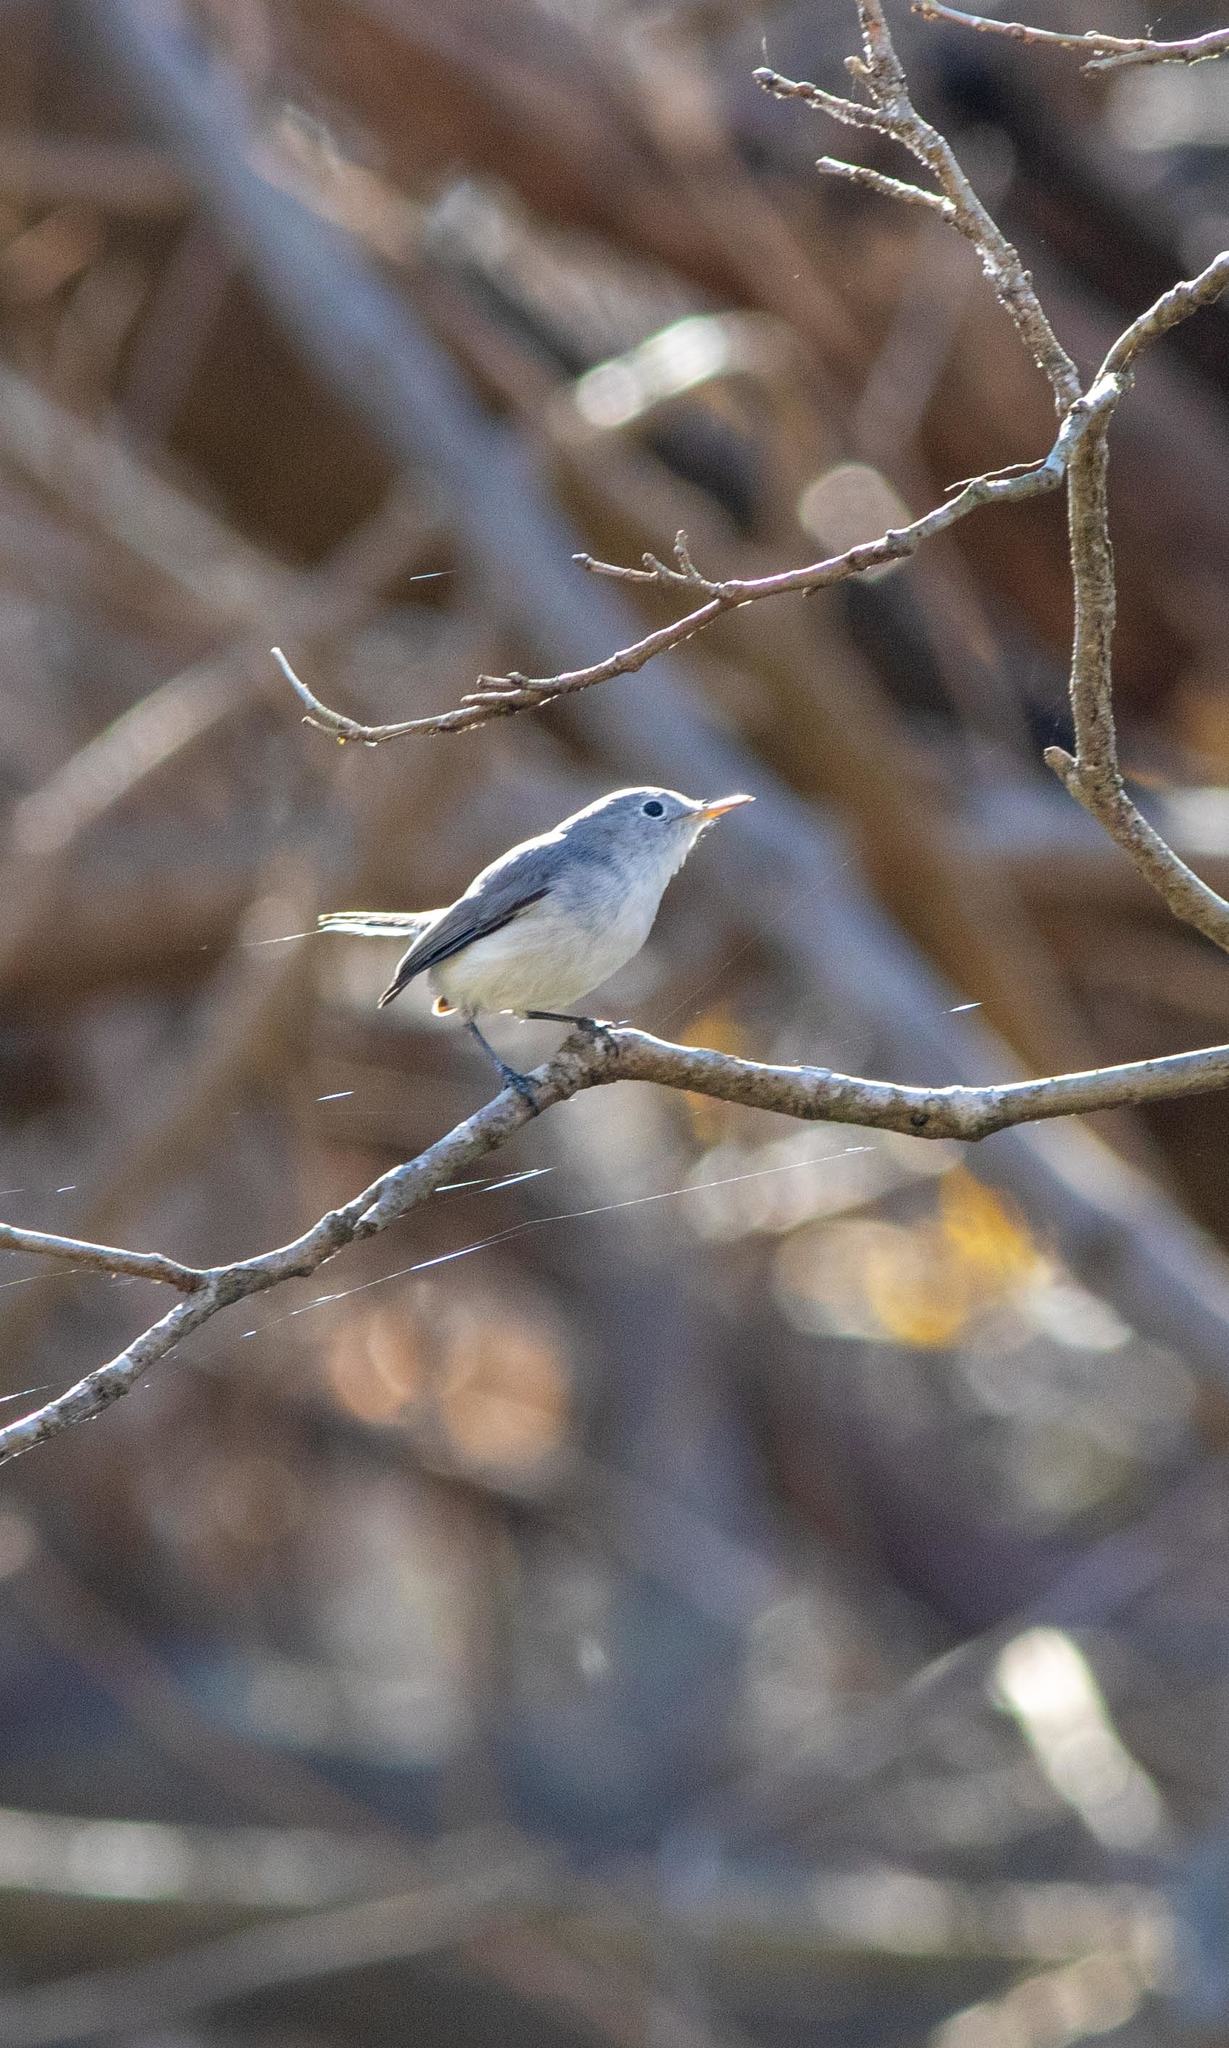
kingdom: Animalia
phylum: Chordata
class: Aves
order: Passeriformes
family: Polioptilidae
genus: Polioptila
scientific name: Polioptila caerulea
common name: Blue-gray gnatcatcher
